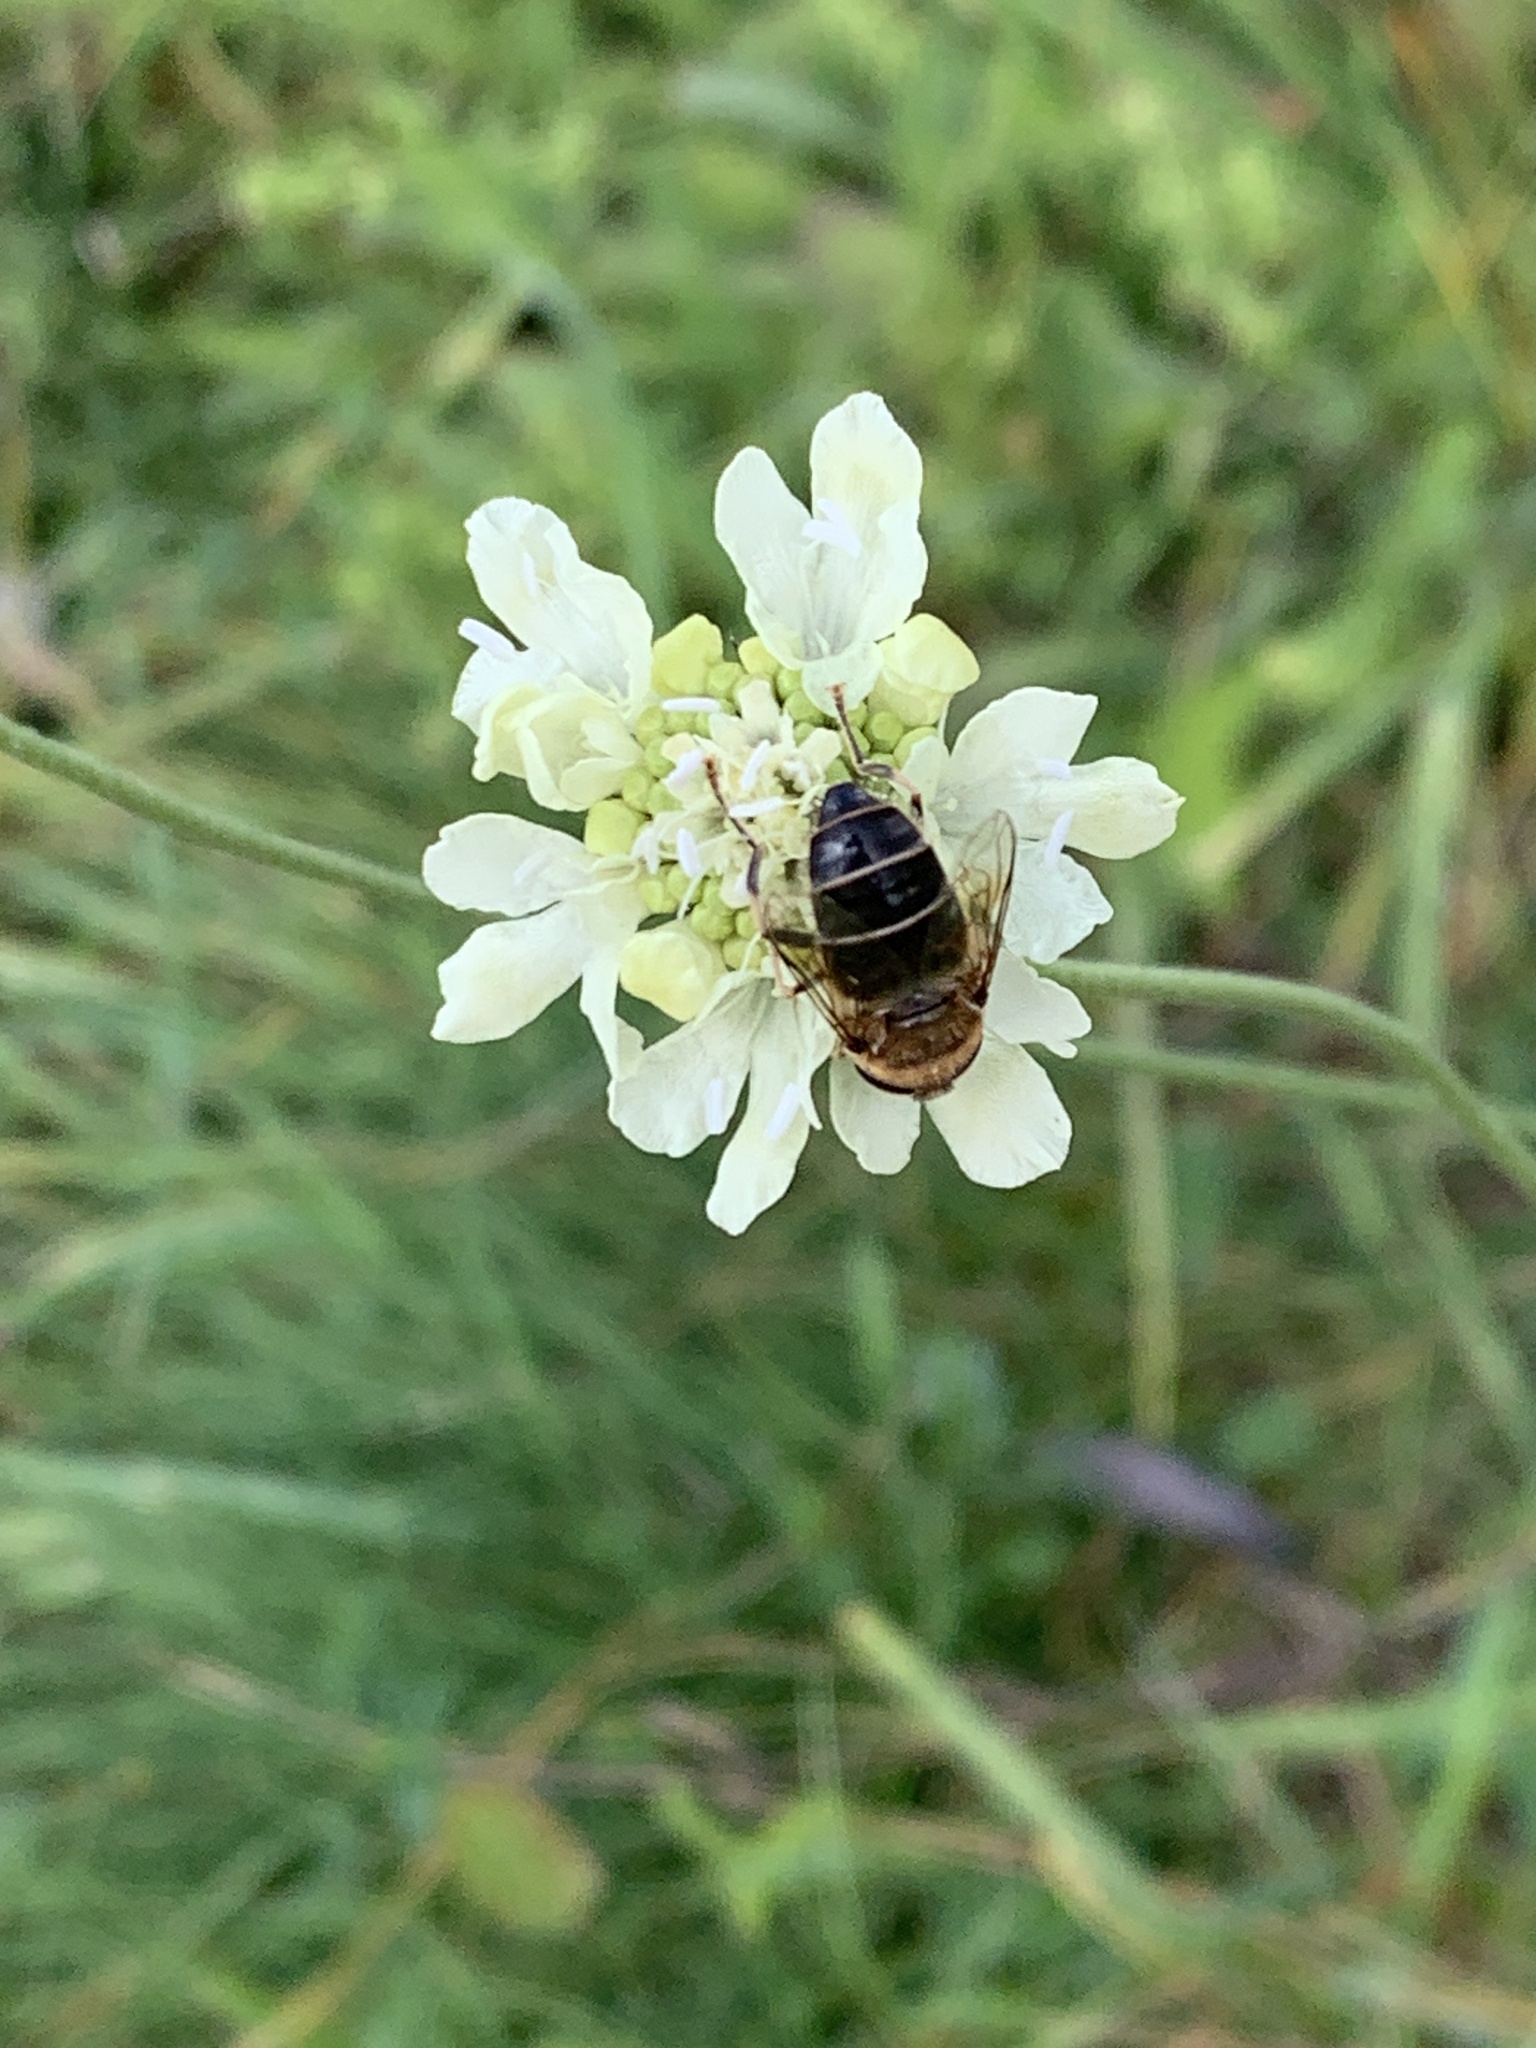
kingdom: Plantae
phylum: Tracheophyta
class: Magnoliopsida
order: Dipsacales
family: Caprifoliaceae
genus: Scabiosa
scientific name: Scabiosa ochroleuca
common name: Cream pincushions
